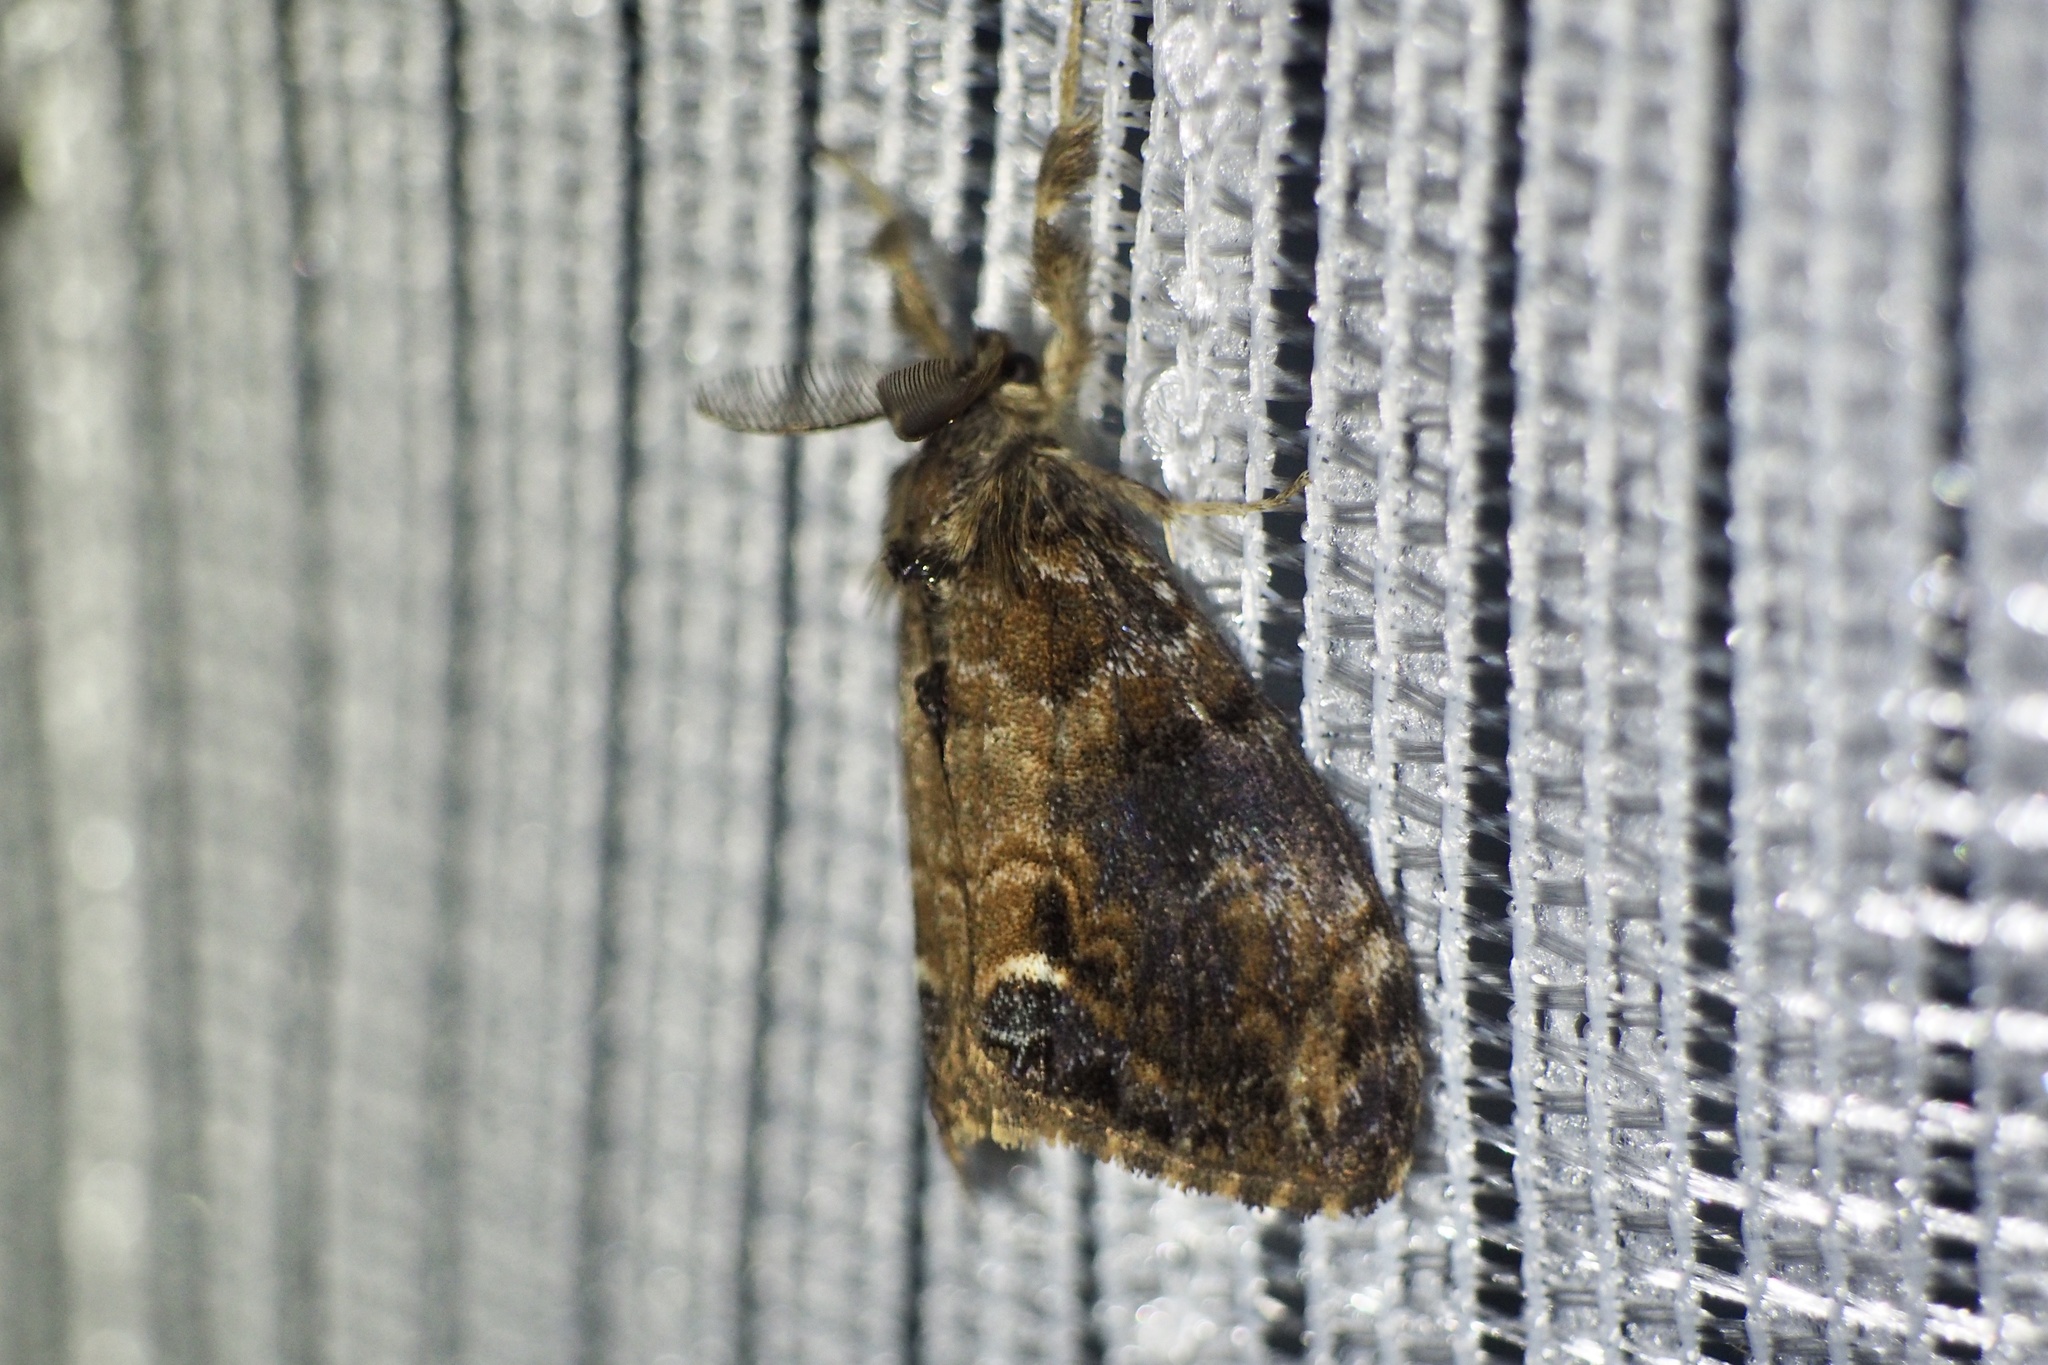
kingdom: Animalia
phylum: Arthropoda
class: Insecta
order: Lepidoptera
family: Erebidae
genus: Orgyia
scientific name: Orgyia thyellina
